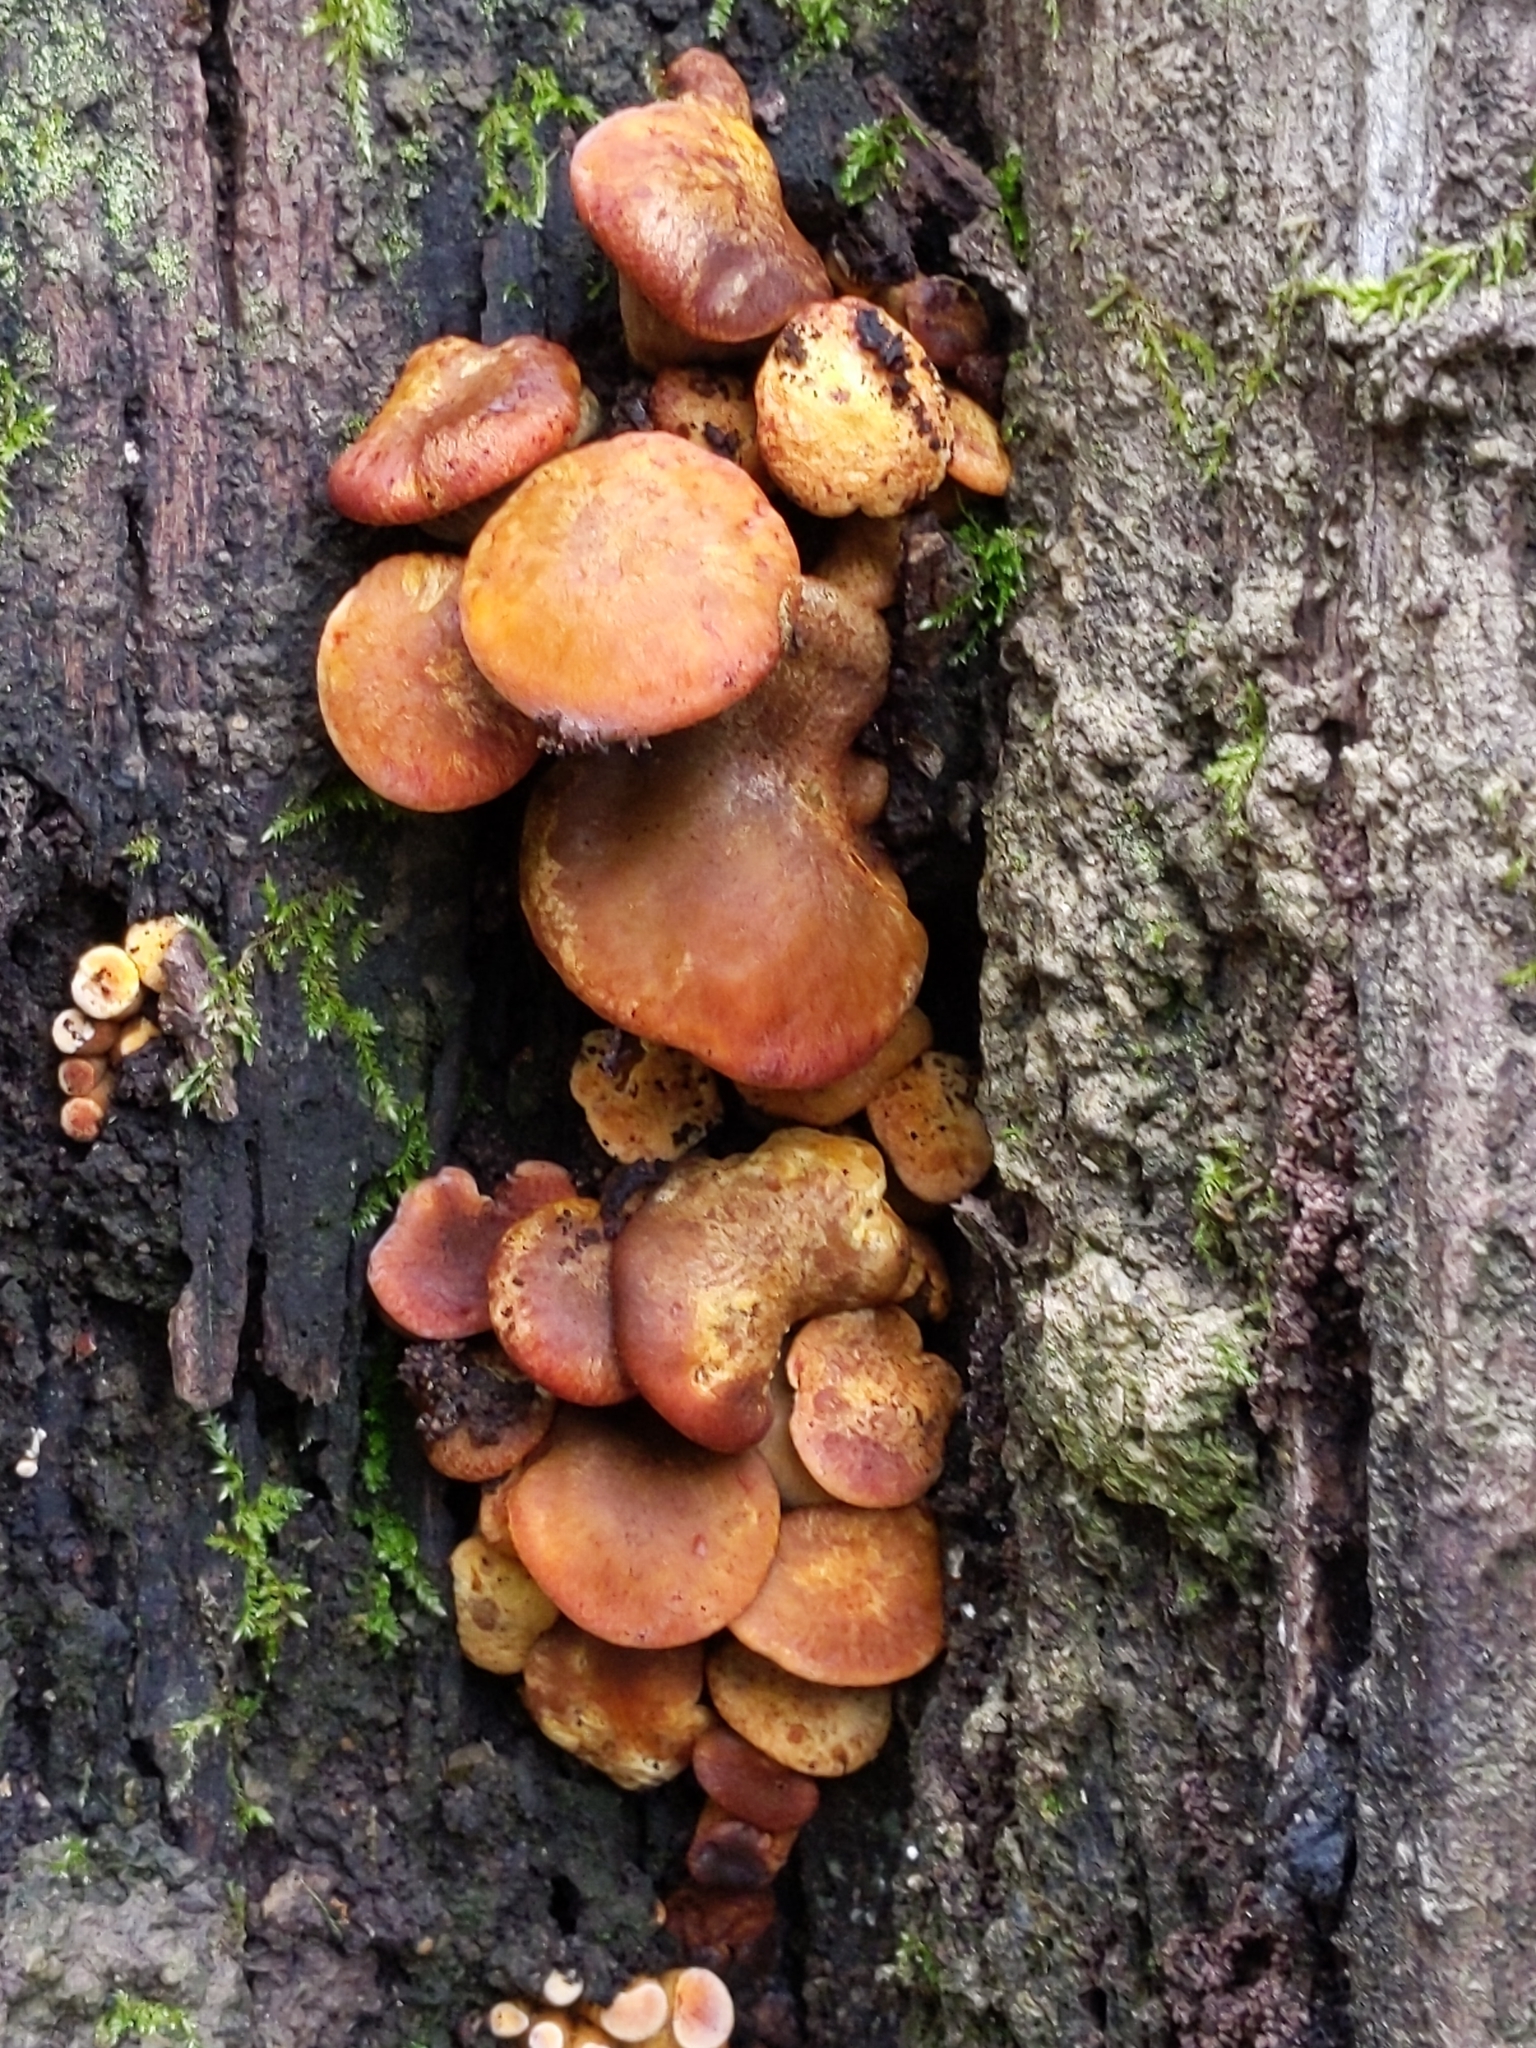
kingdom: Fungi
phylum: Basidiomycota
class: Agaricomycetes
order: Agaricales
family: Omphalotaceae
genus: Omphalotus
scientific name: Omphalotus olivascens
